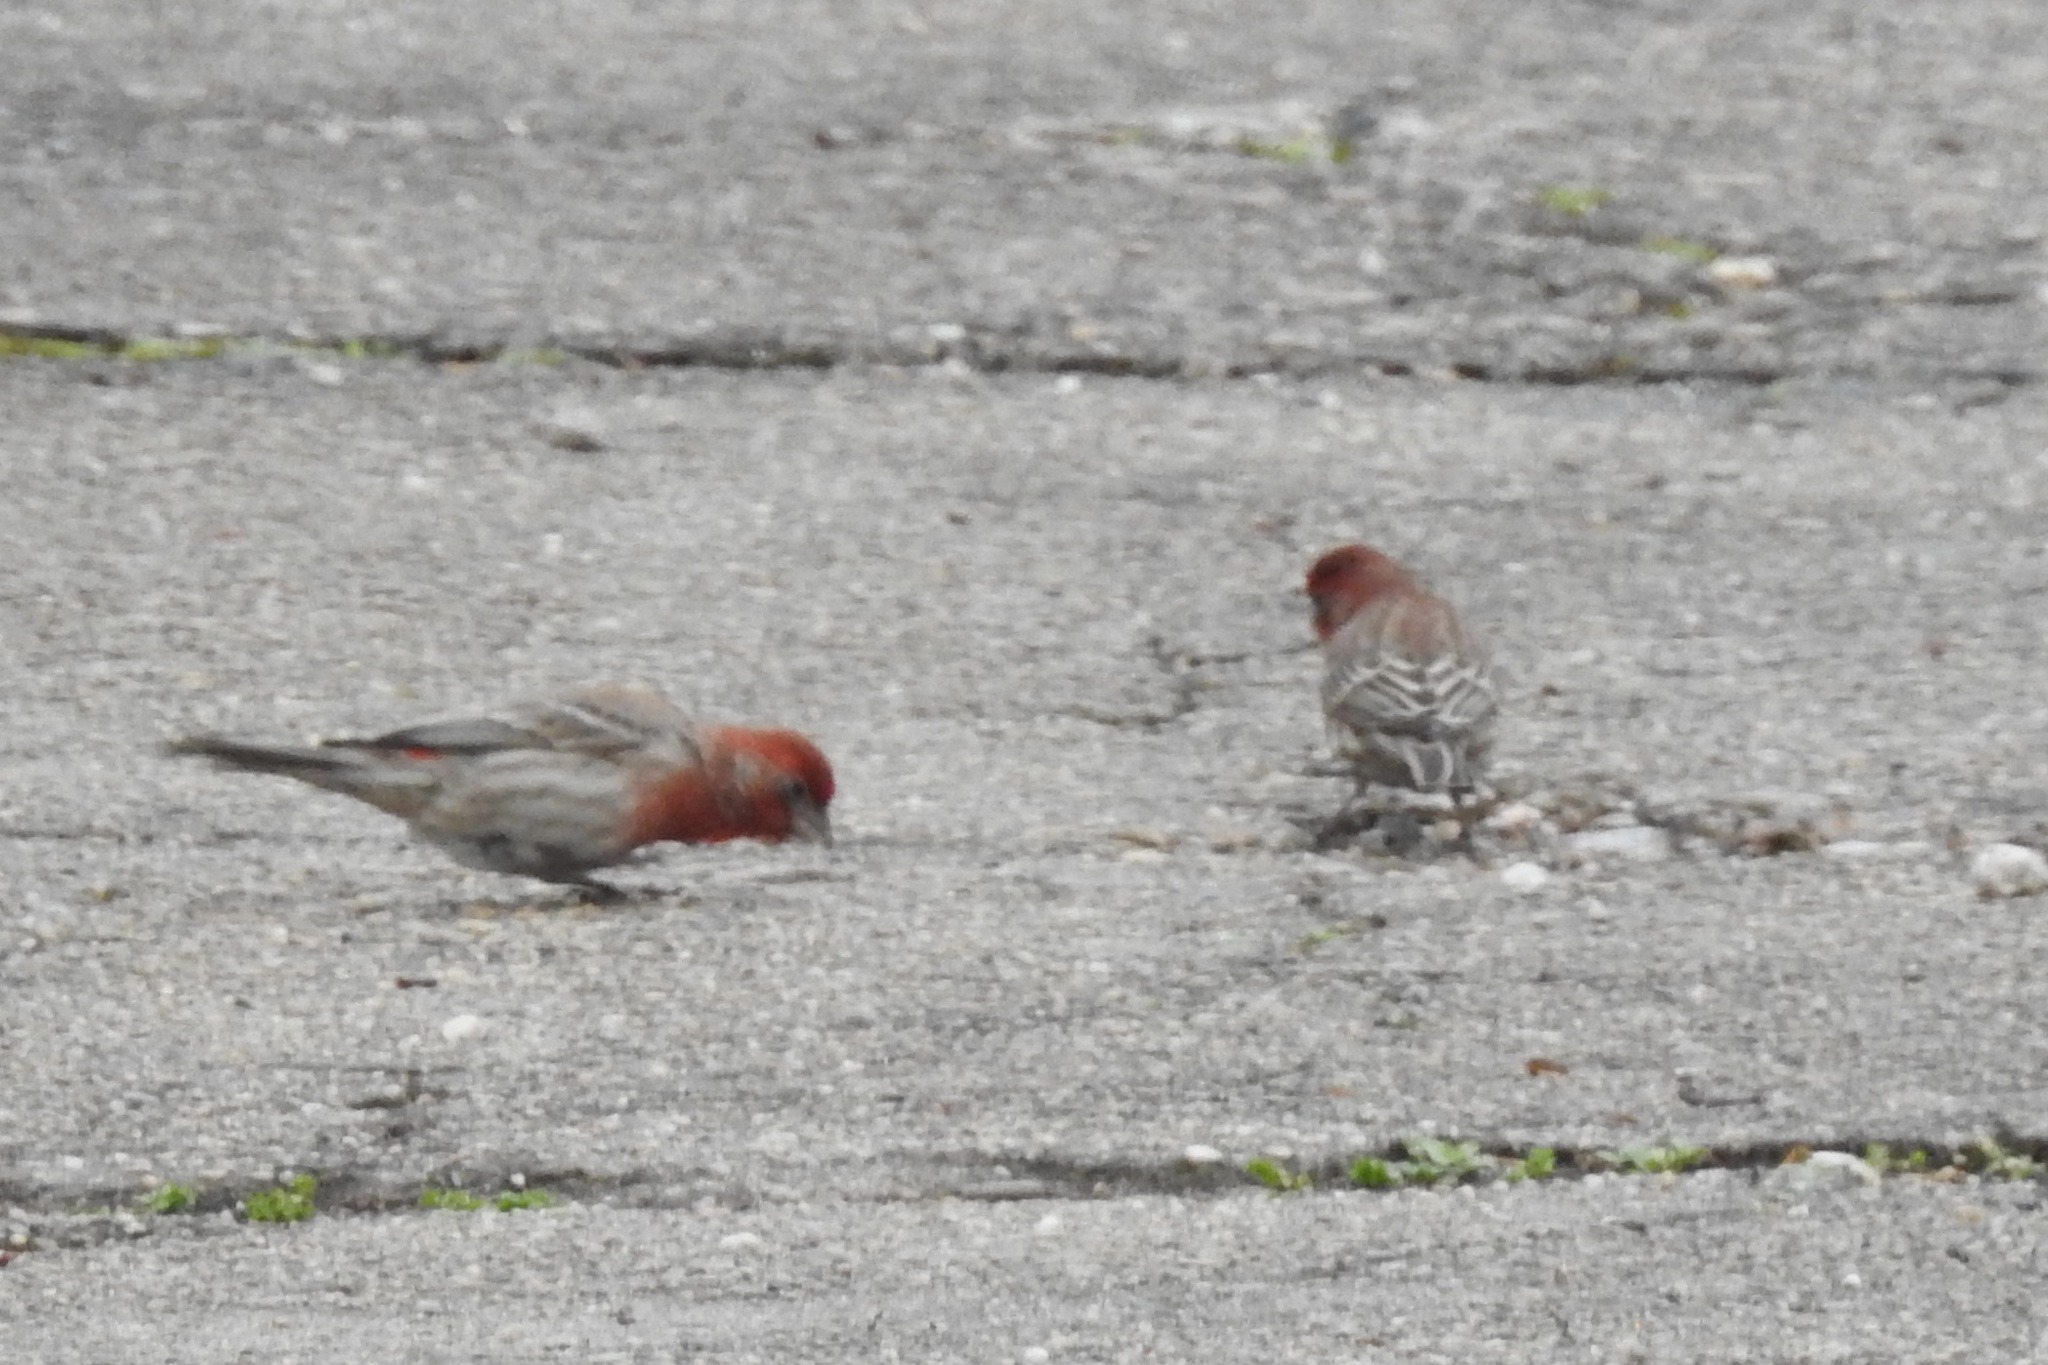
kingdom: Animalia
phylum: Chordata
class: Aves
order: Passeriformes
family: Fringillidae
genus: Haemorhous
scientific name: Haemorhous mexicanus
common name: House finch
